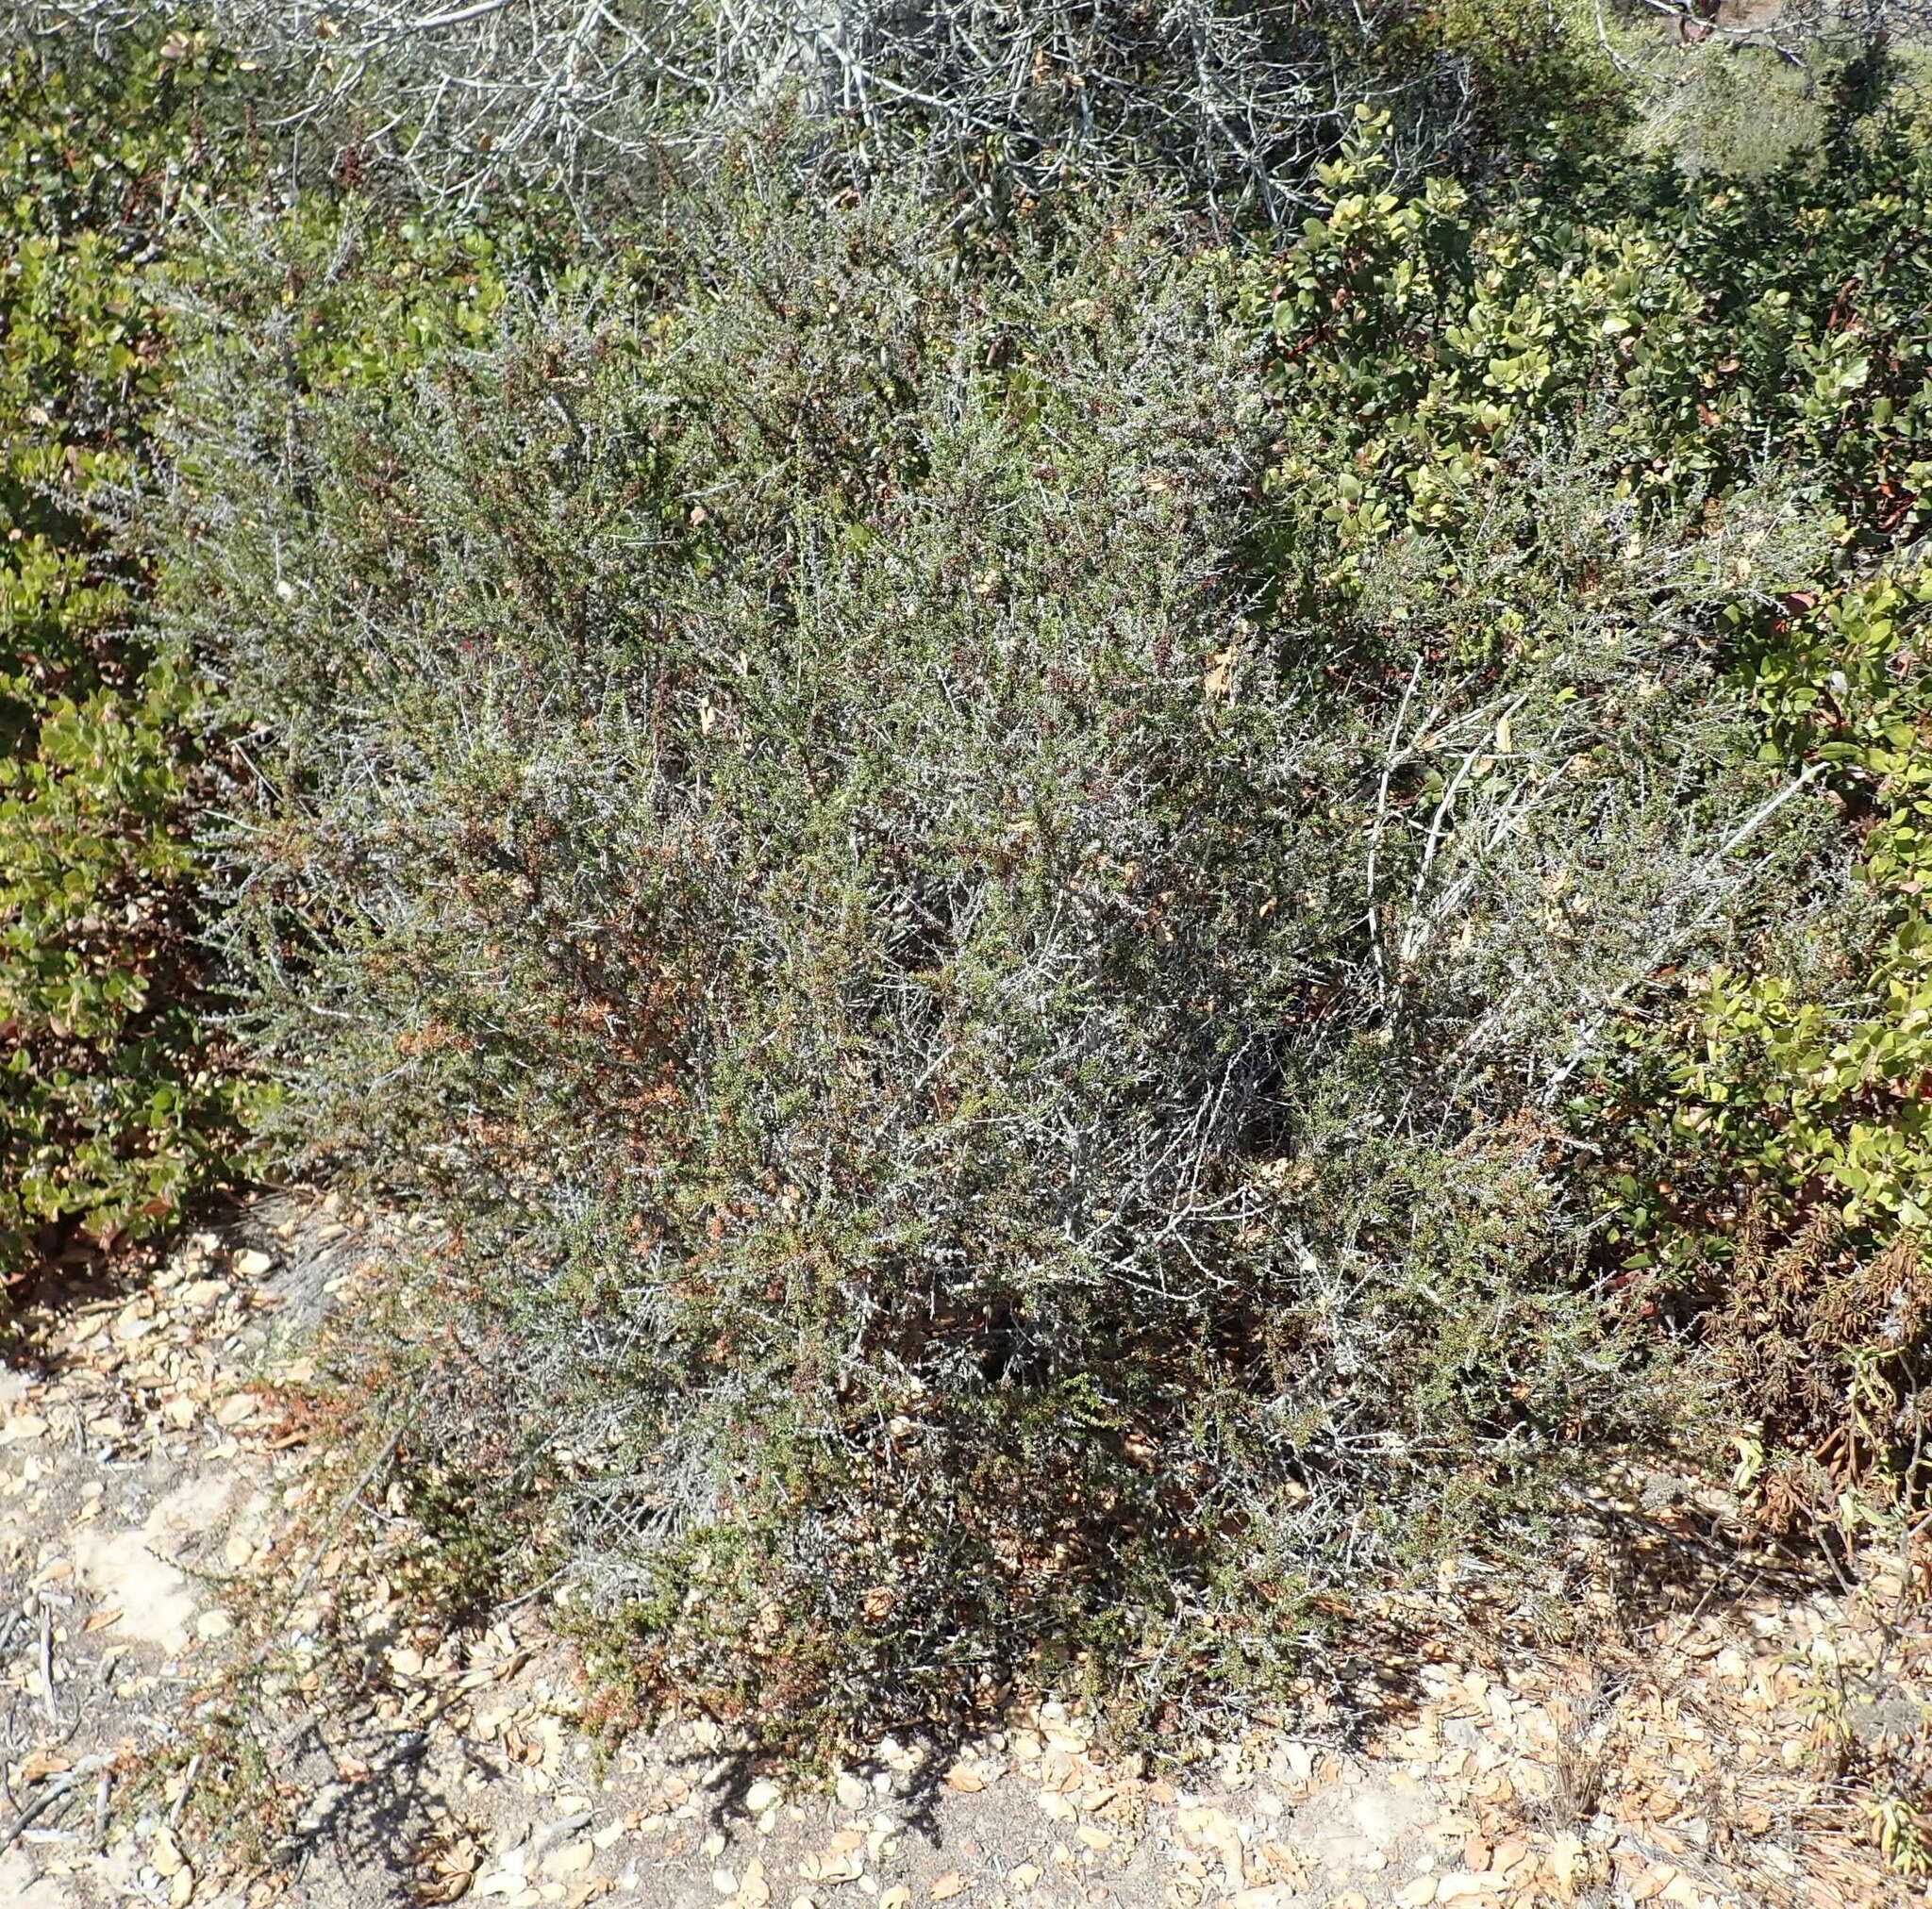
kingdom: Animalia
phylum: Arthropoda
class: Arachnida
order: Trombidiformes
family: Eriophyidae
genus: Eriophyes
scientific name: Eriophyes
